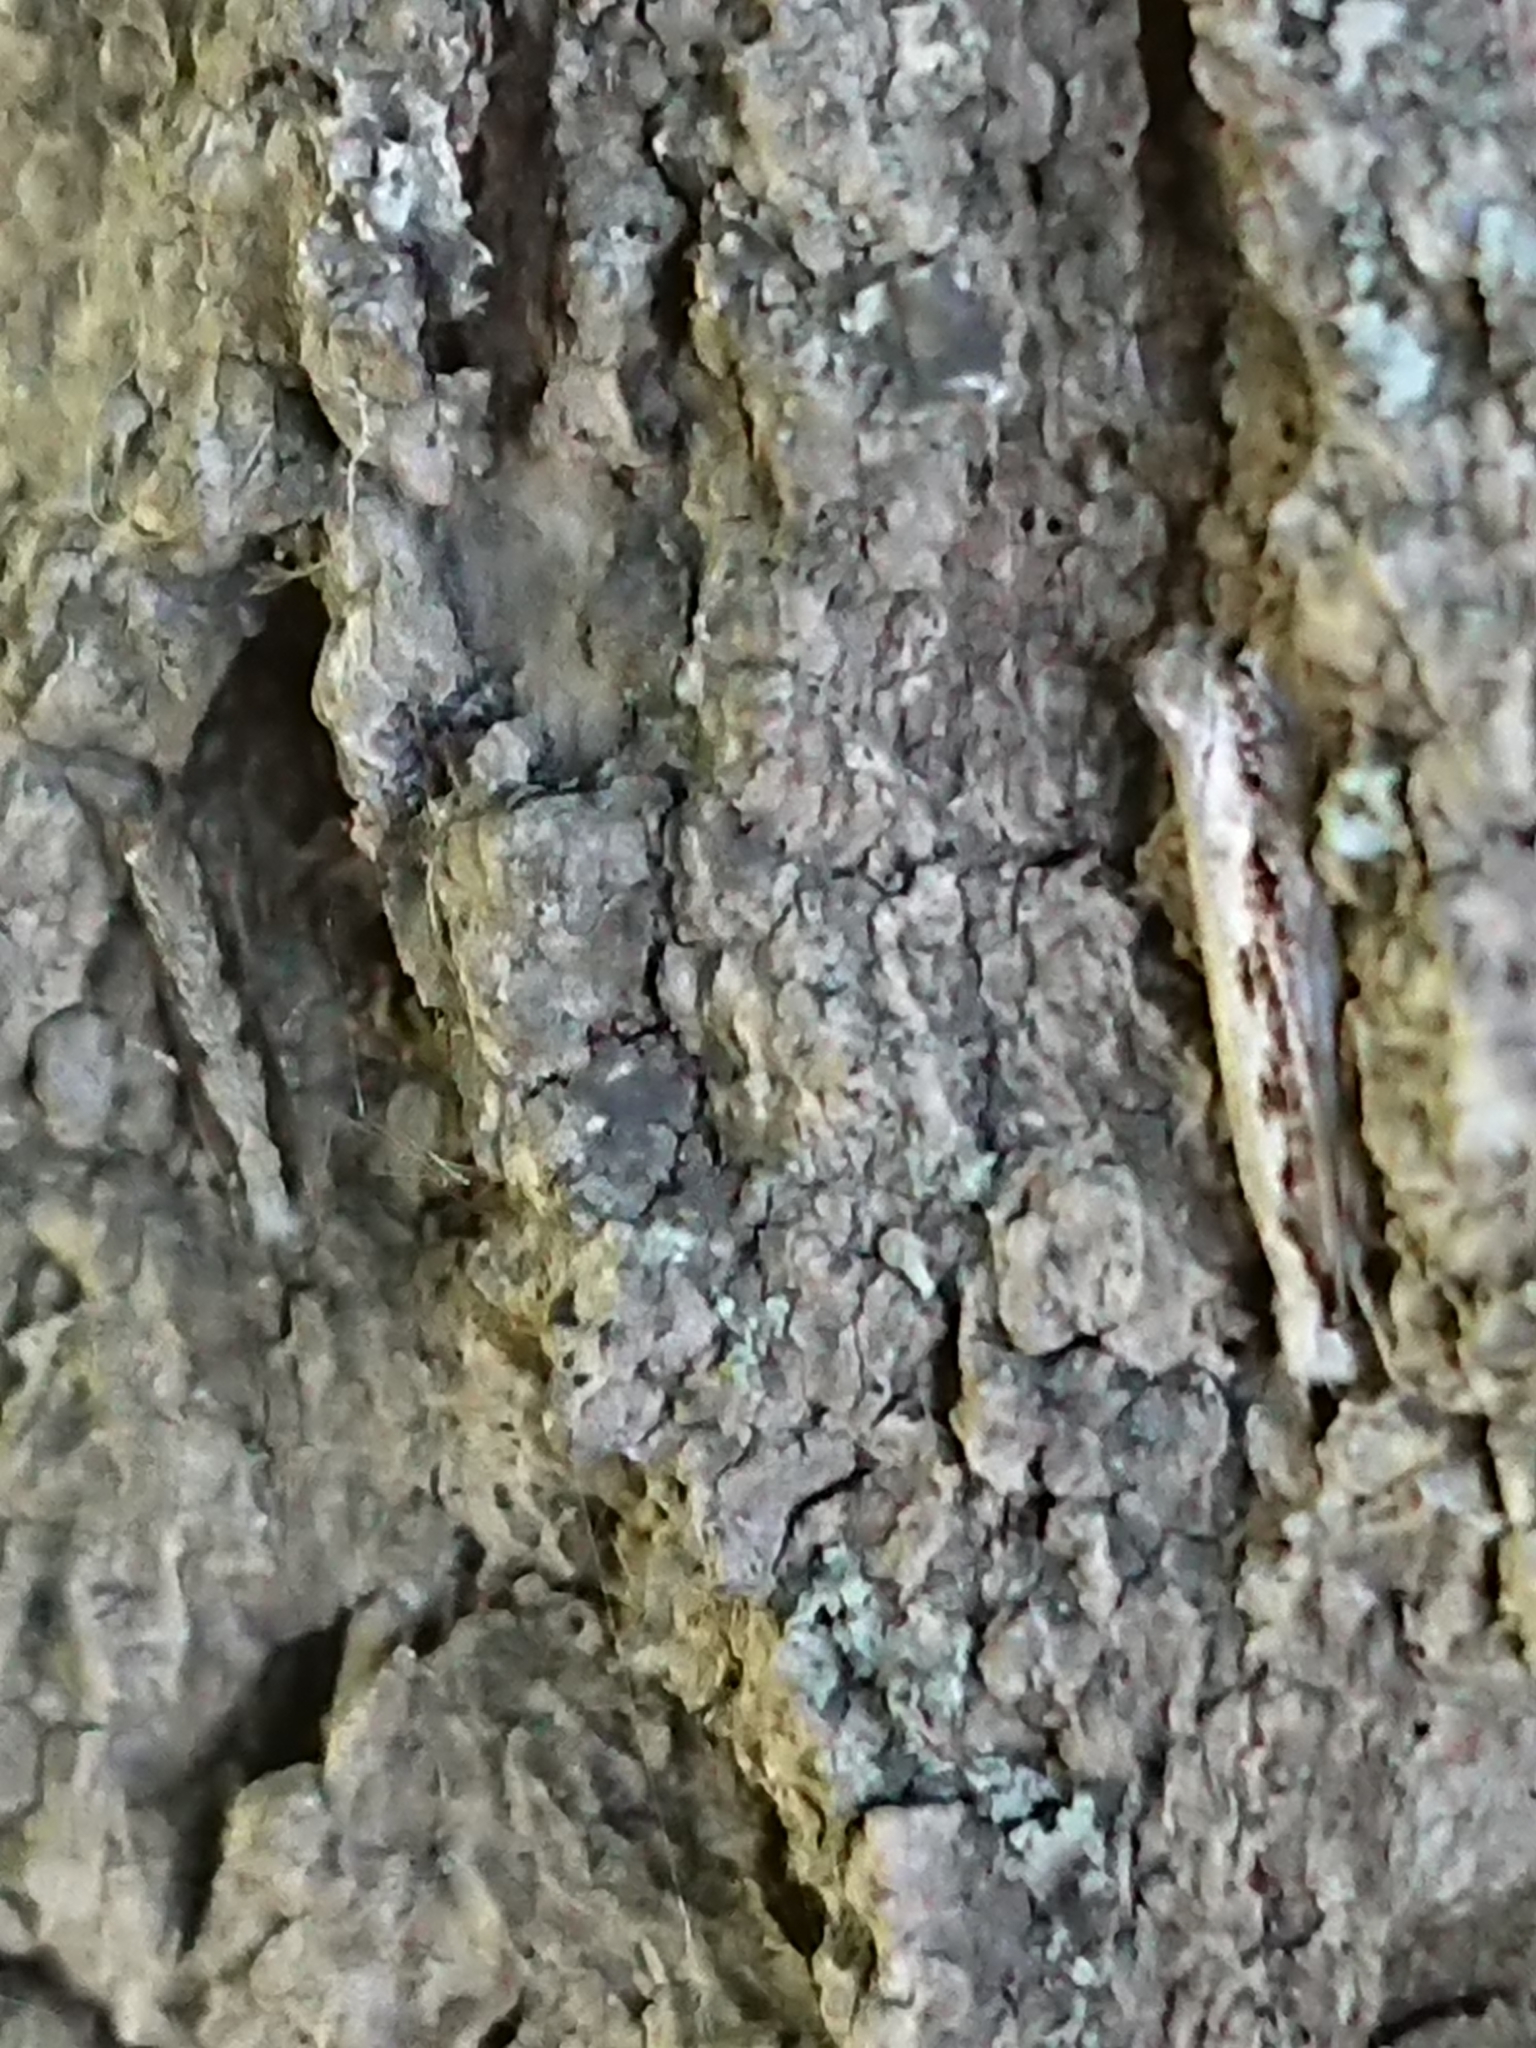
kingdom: Animalia
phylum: Arthropoda
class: Insecta
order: Lepidoptera
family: Tineidae
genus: Erechthias
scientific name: Erechthias fulguritella
